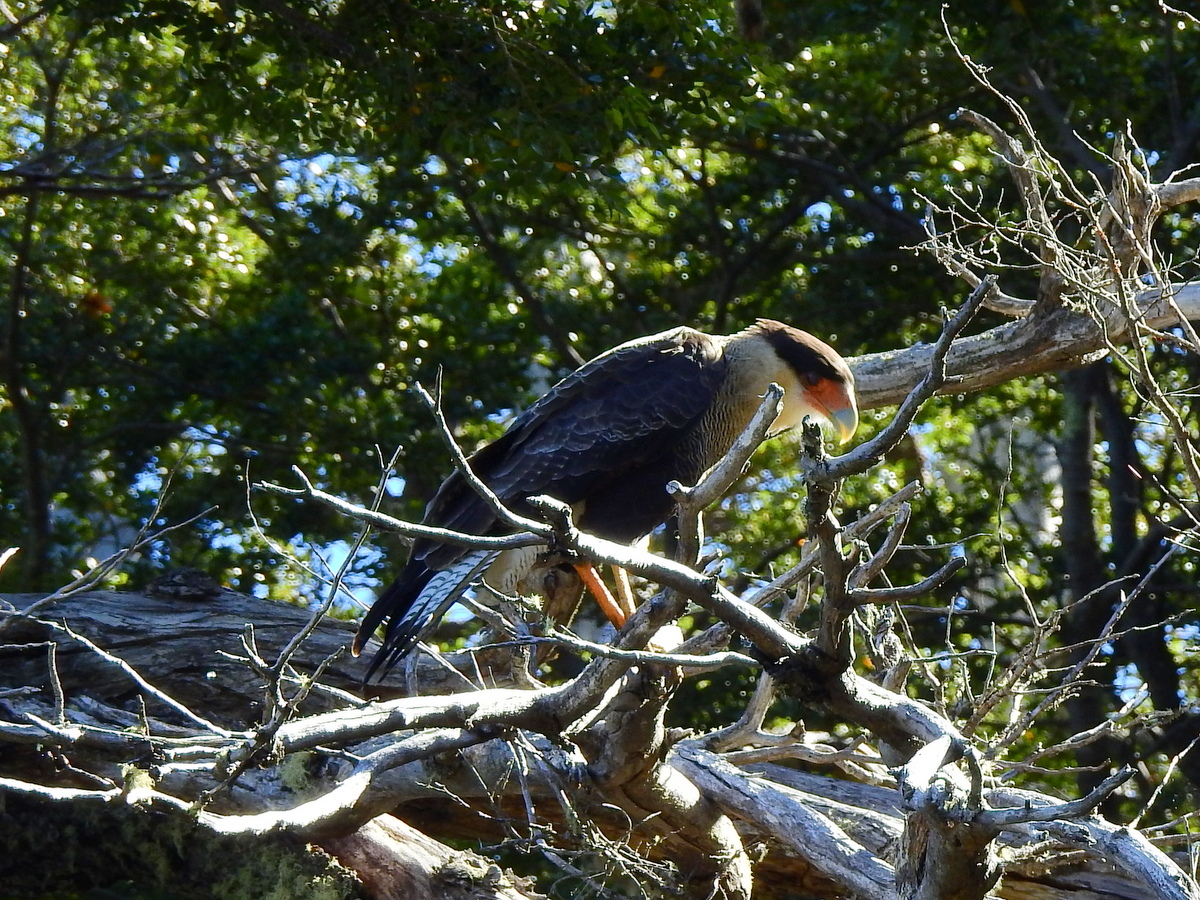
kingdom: Animalia
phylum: Chordata
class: Aves
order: Falconiformes
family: Falconidae
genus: Caracara
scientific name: Caracara plancus
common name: Southern caracara
